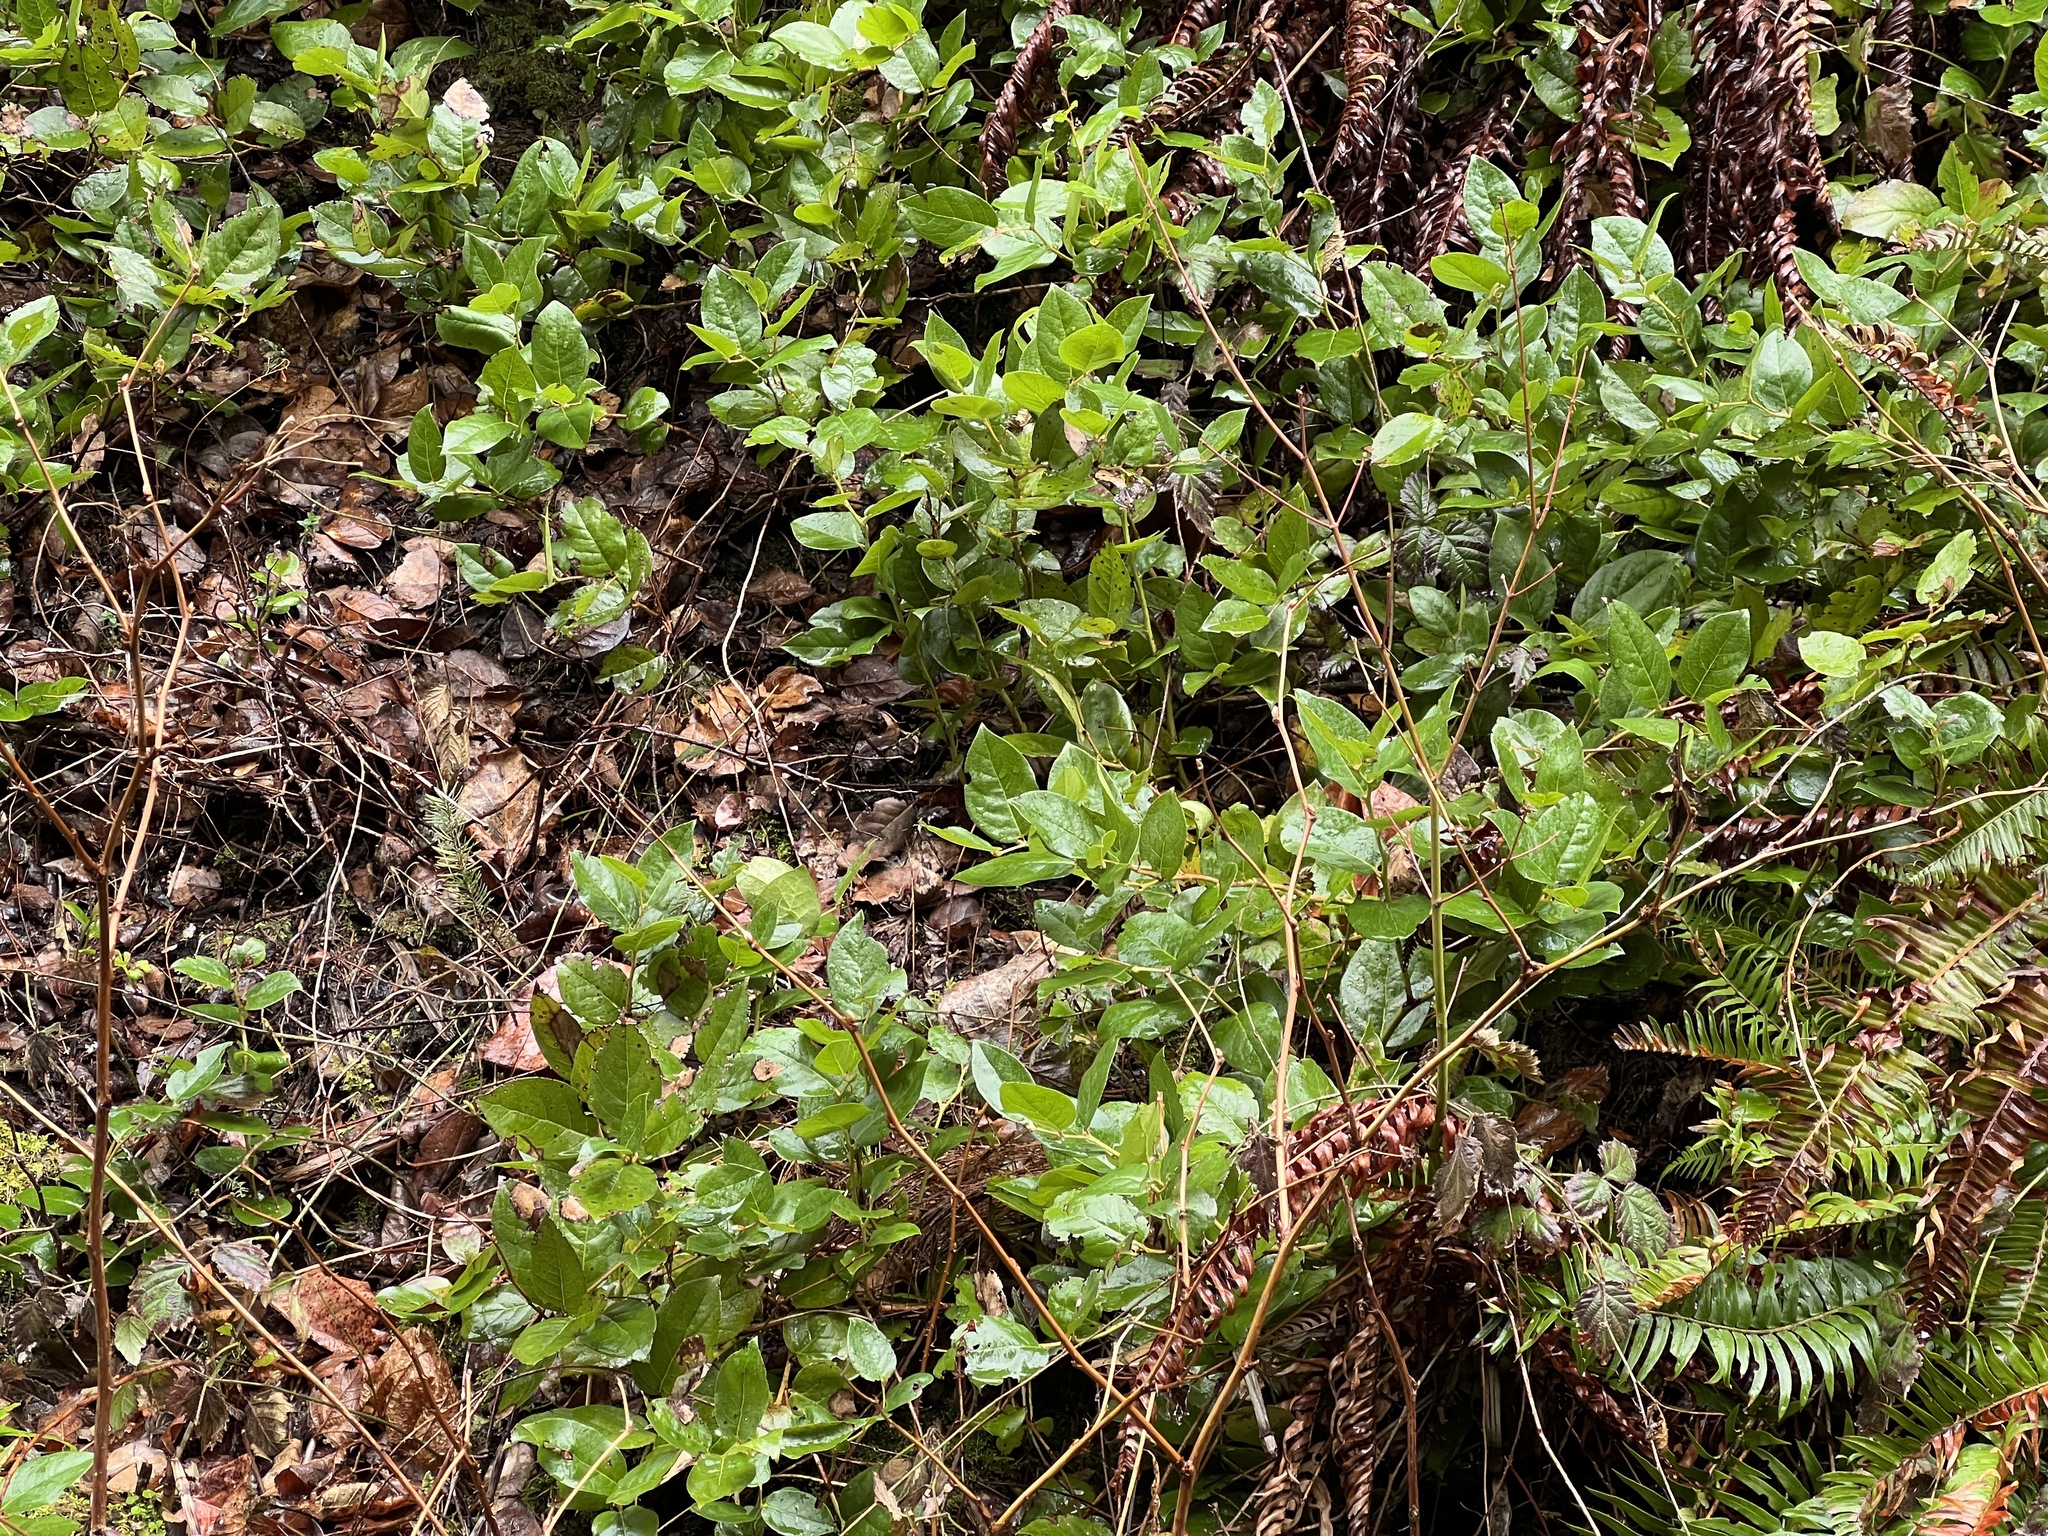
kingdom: Plantae
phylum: Tracheophyta
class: Magnoliopsida
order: Ericales
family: Ericaceae
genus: Gaultheria
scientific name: Gaultheria shallon
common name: Shallon
